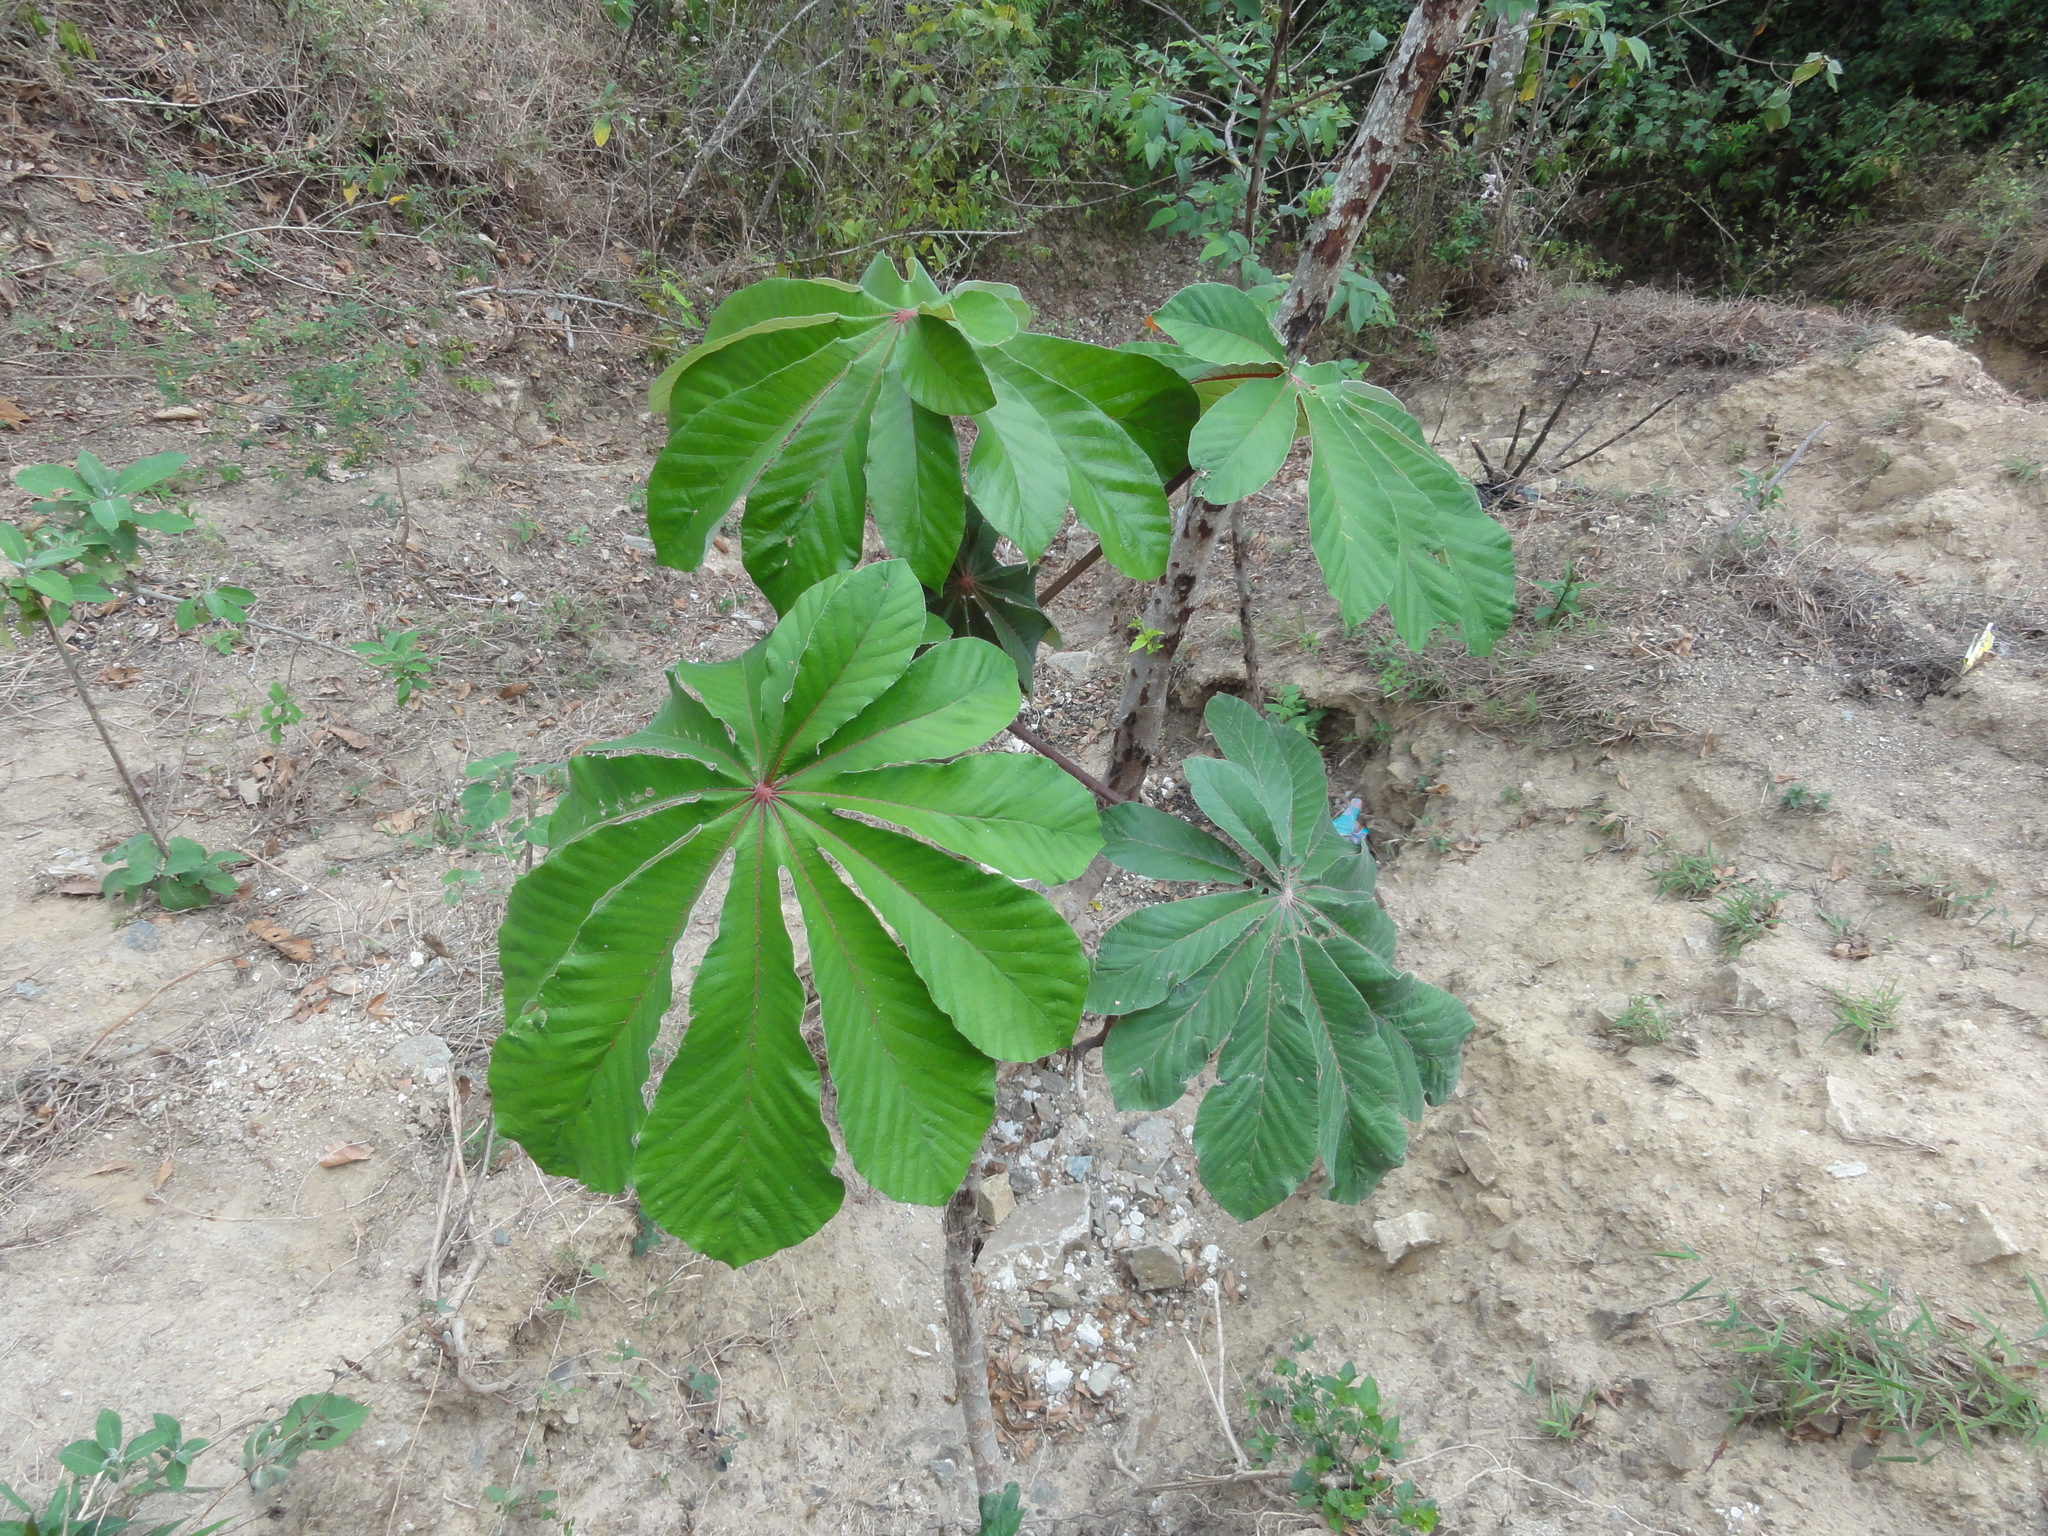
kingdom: Plantae
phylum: Tracheophyta
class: Magnoliopsida
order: Rosales
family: Urticaceae
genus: Cecropia
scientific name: Cecropia obtusifolia
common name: Trumpet tree
